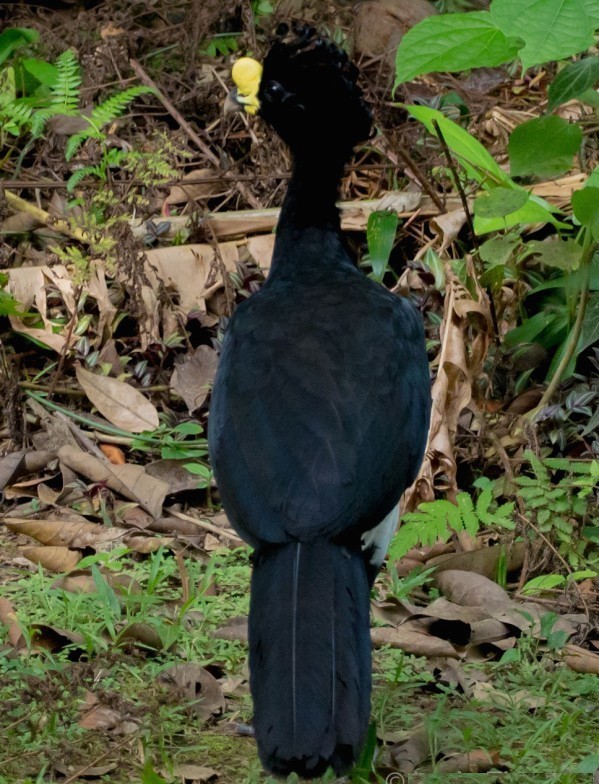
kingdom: Animalia
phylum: Chordata
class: Aves
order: Galliformes
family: Cracidae
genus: Crax
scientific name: Crax rubra
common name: Great curassow
